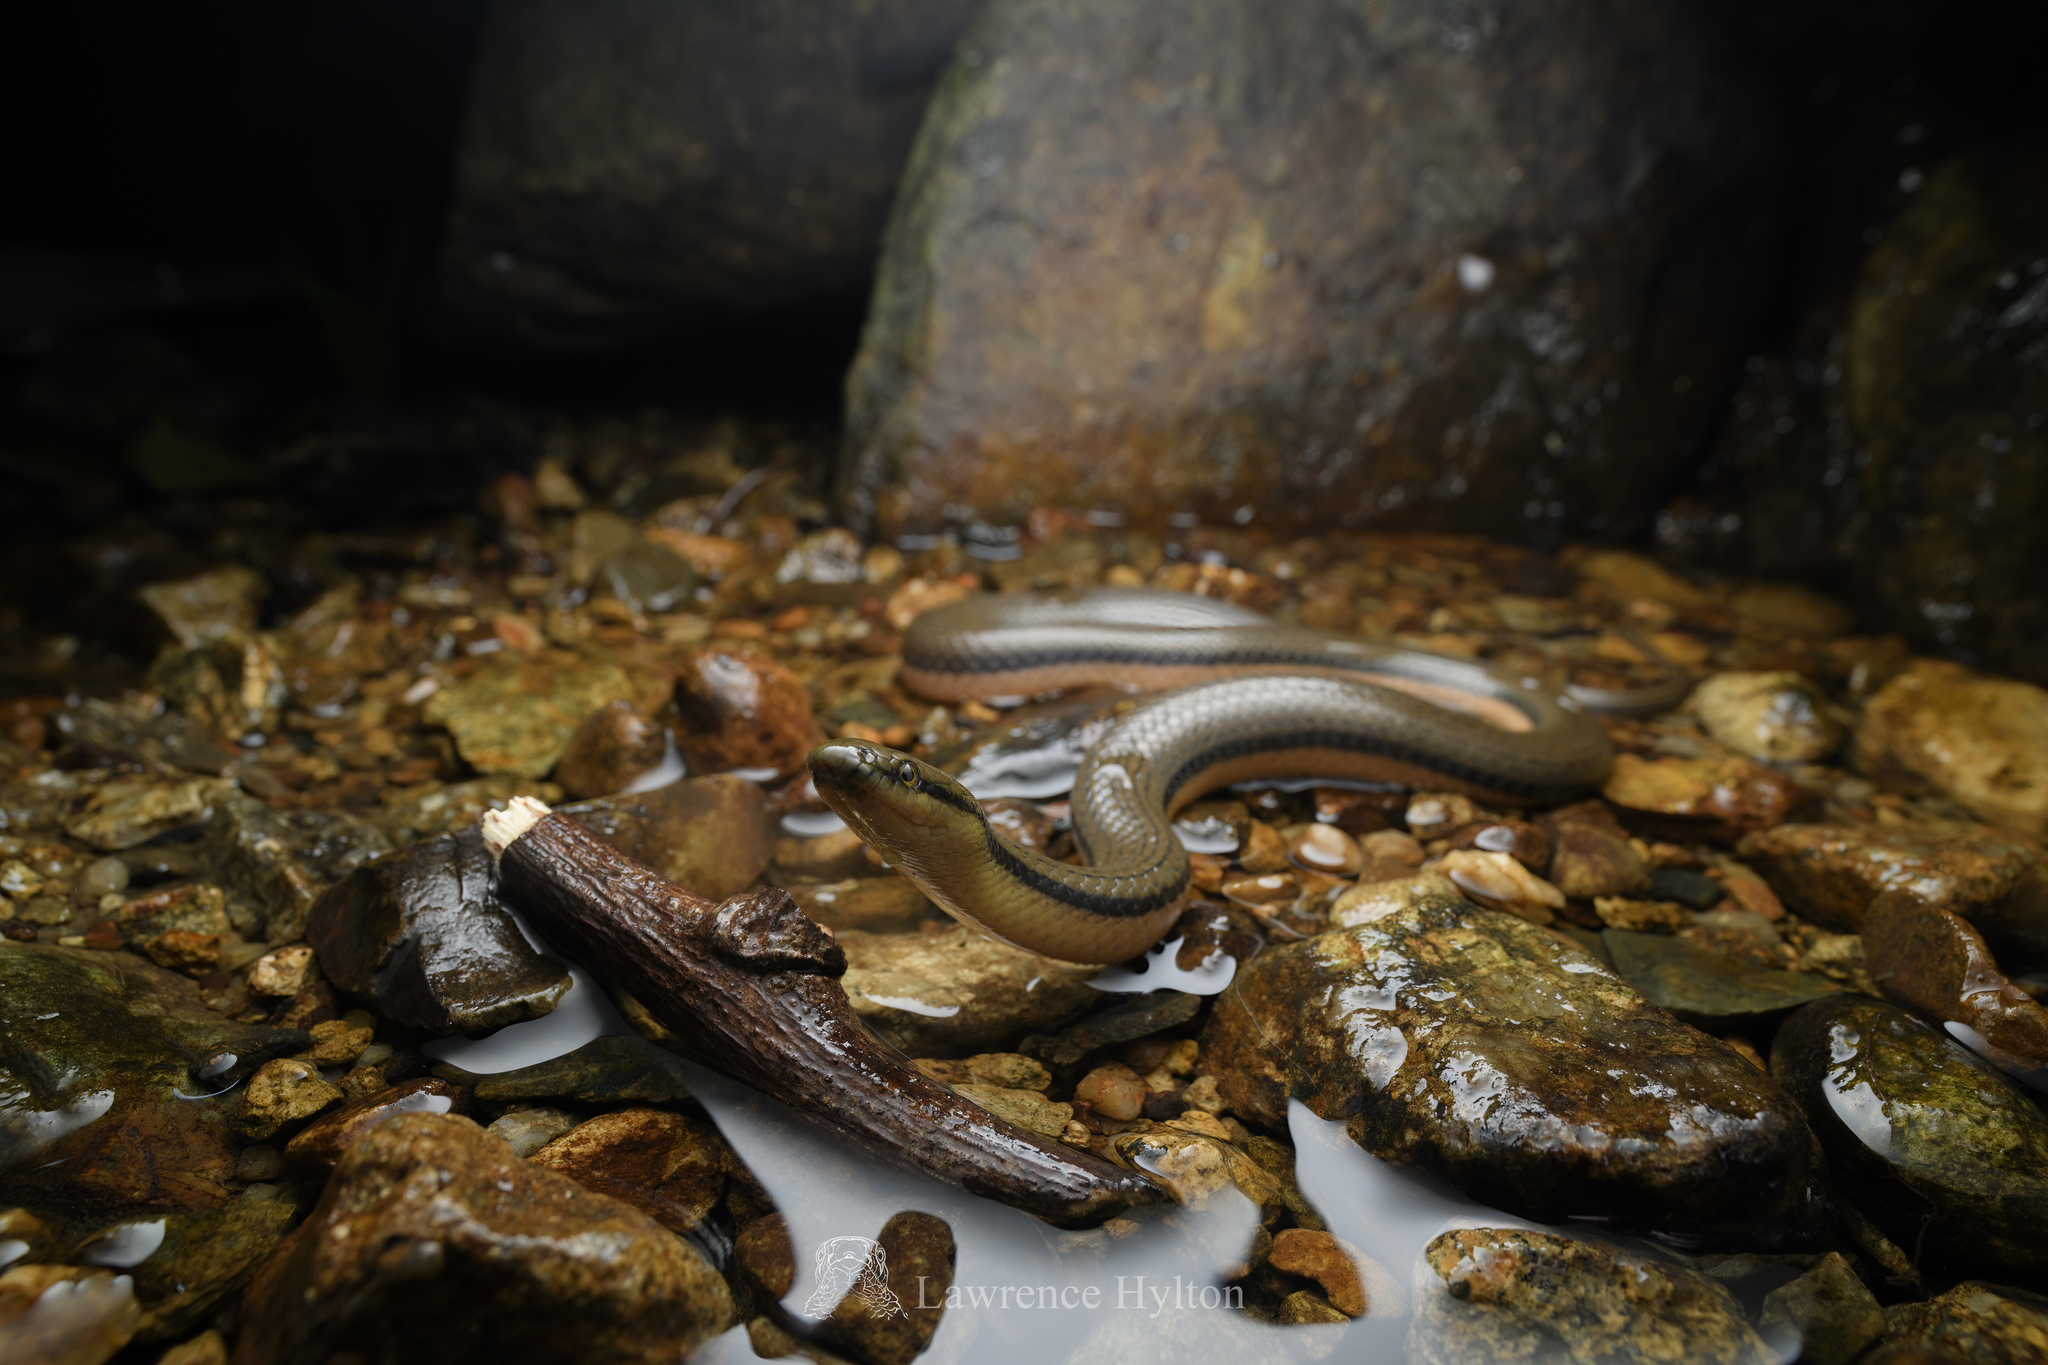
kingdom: Animalia
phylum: Chordata
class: Squamata
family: Colubridae
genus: Opisthotropis
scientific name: Opisthotropis lateralis
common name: Tonkin mountain keelback
